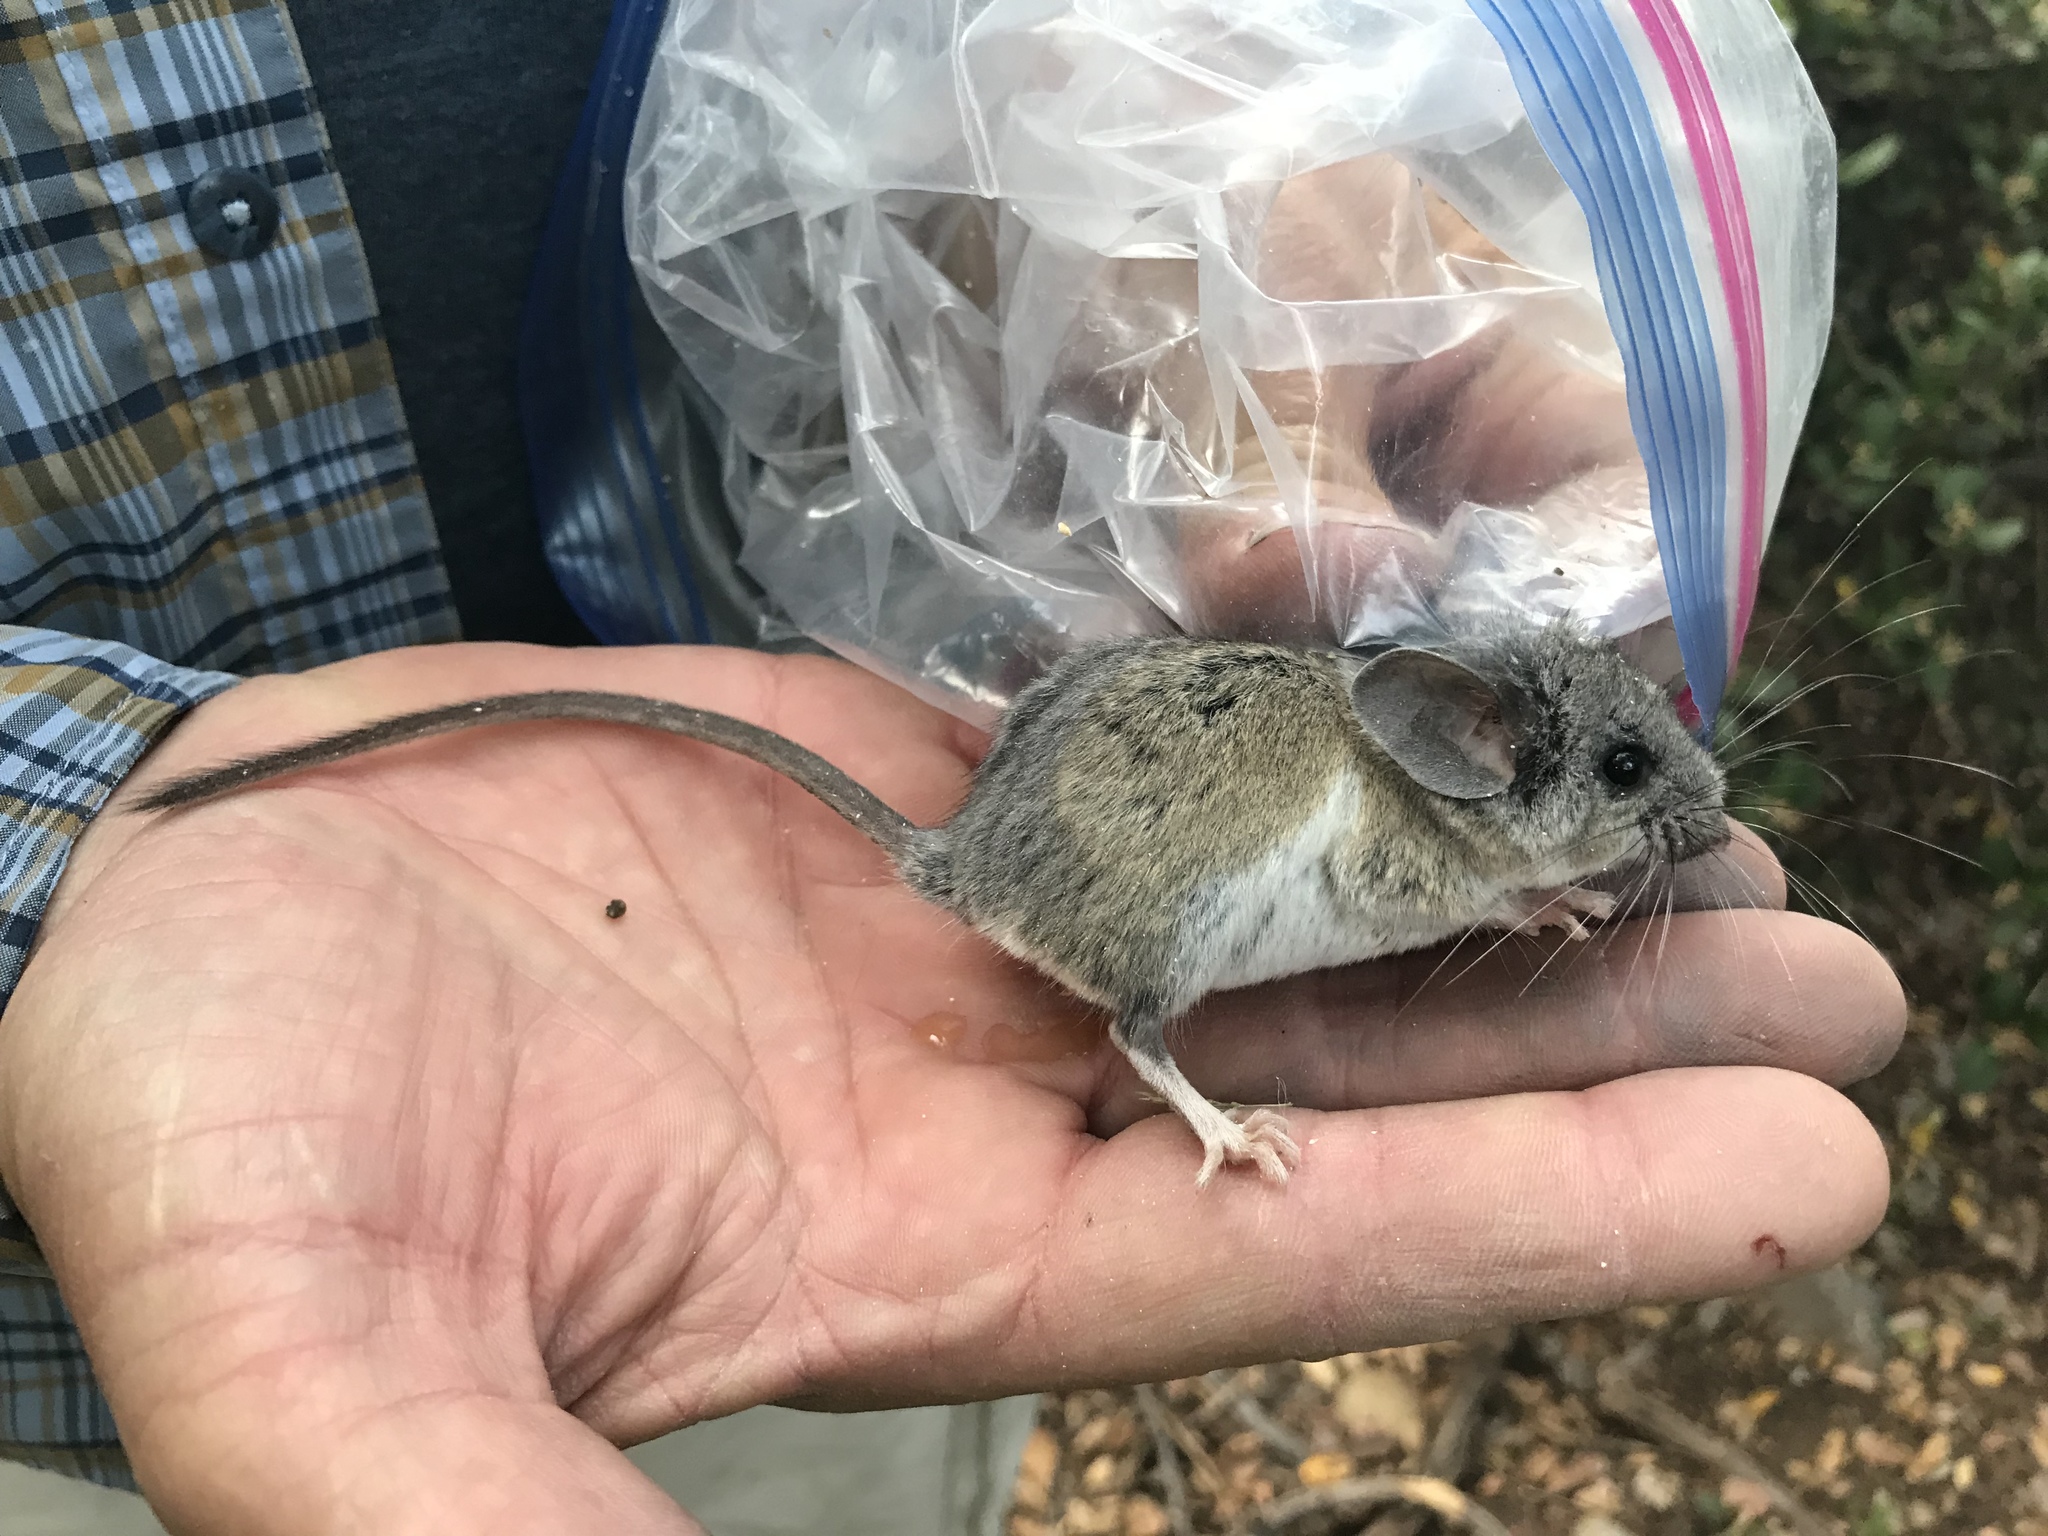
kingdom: Animalia
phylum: Chordata
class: Mammalia
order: Rodentia
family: Cricetidae
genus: Peromyscus
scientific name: Peromyscus boylii
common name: Brush mouse
